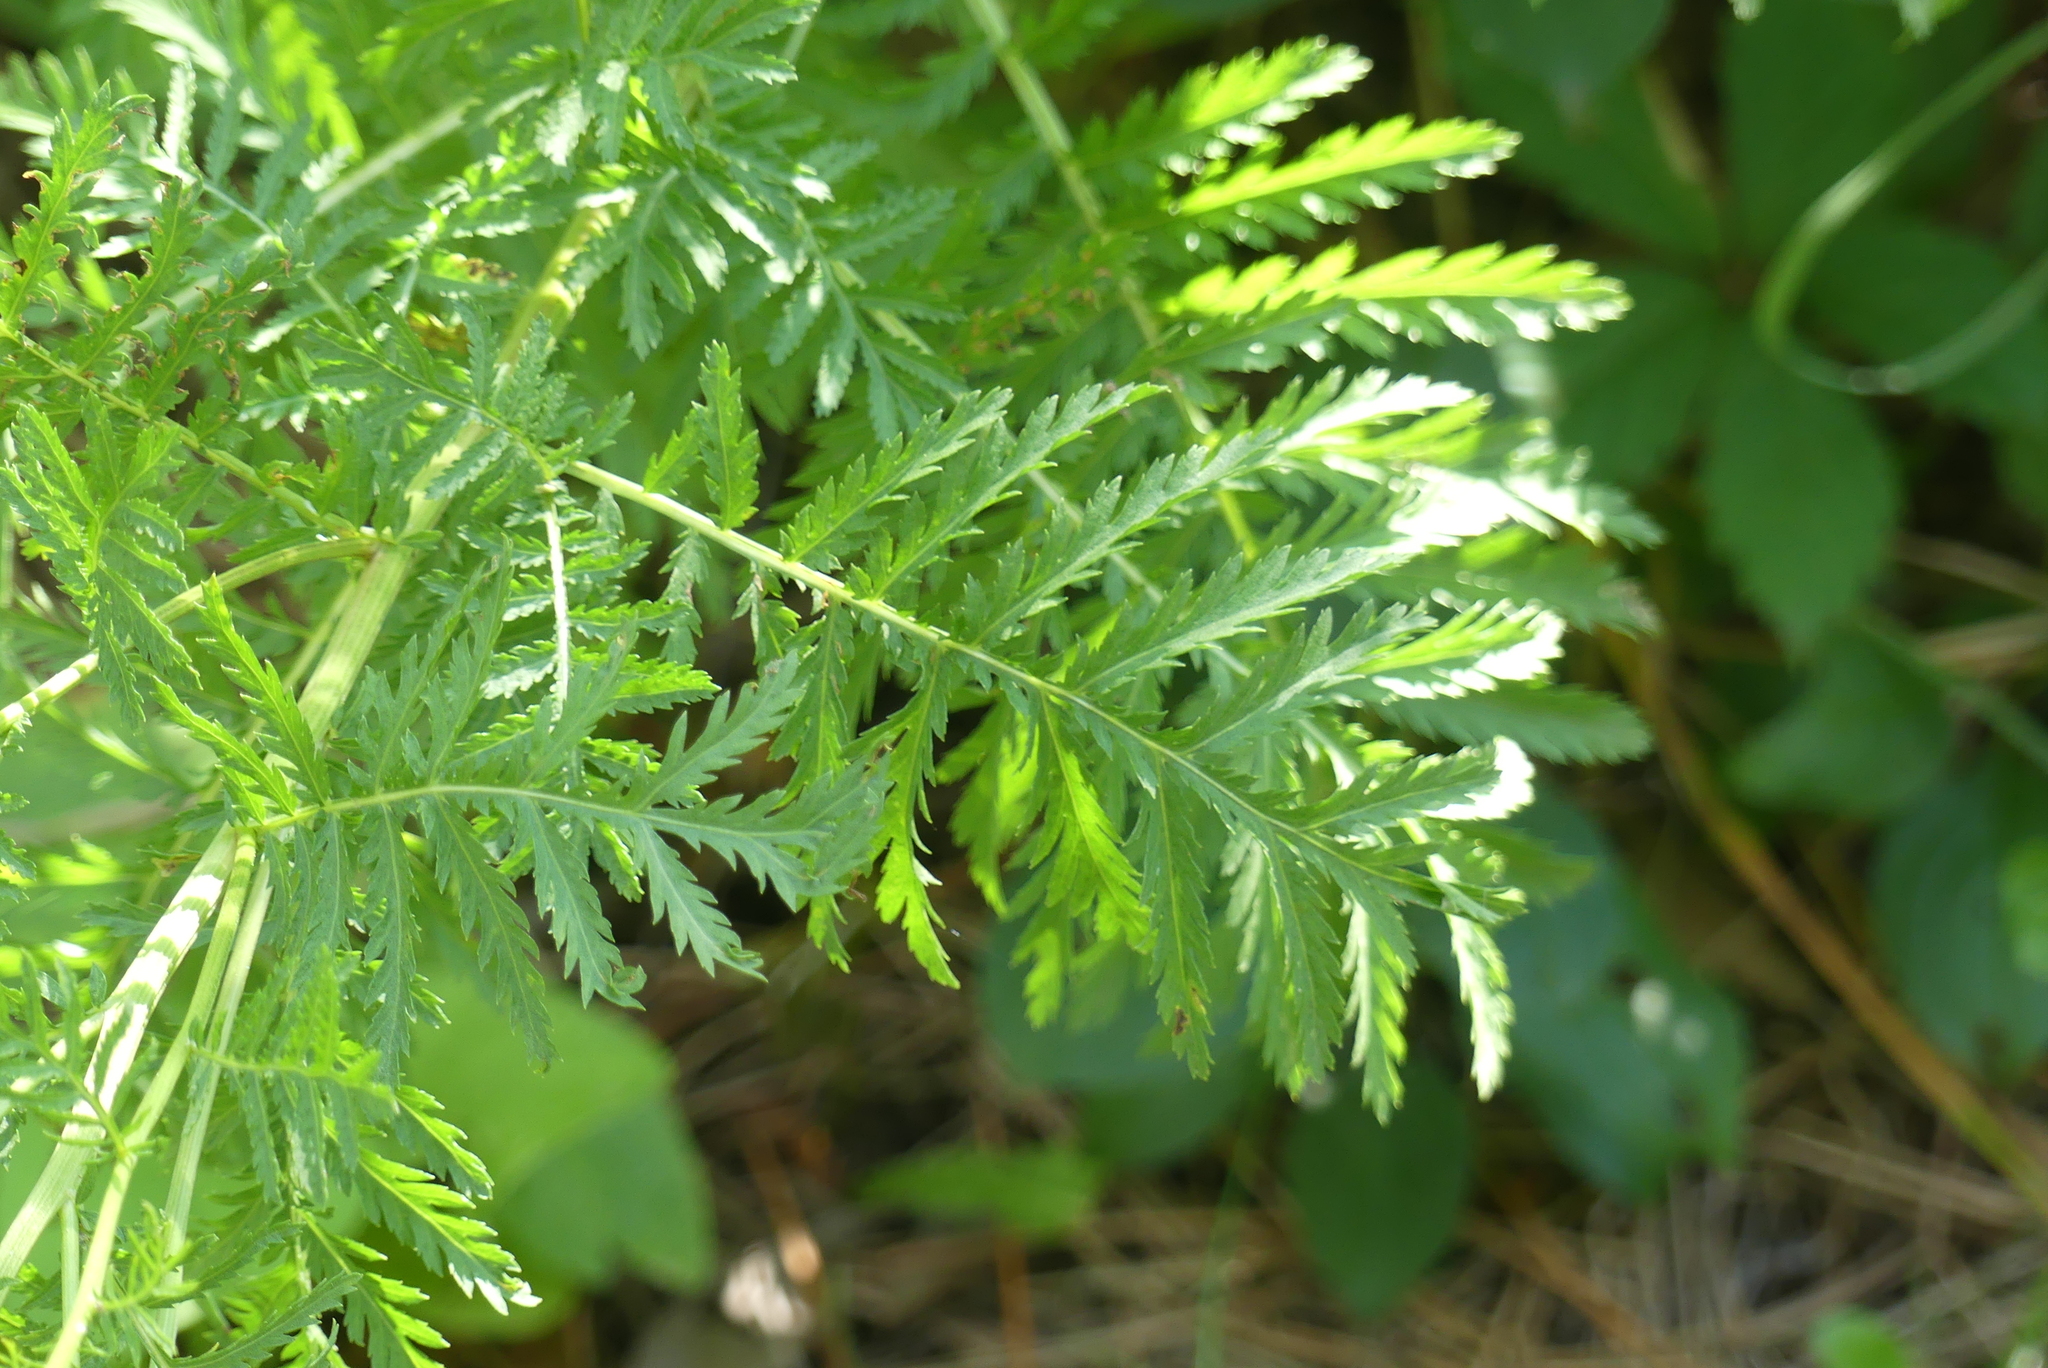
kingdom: Plantae
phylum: Tracheophyta
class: Magnoliopsida
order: Asterales
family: Asteraceae
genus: Tanacetum
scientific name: Tanacetum vulgare
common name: Common tansy
